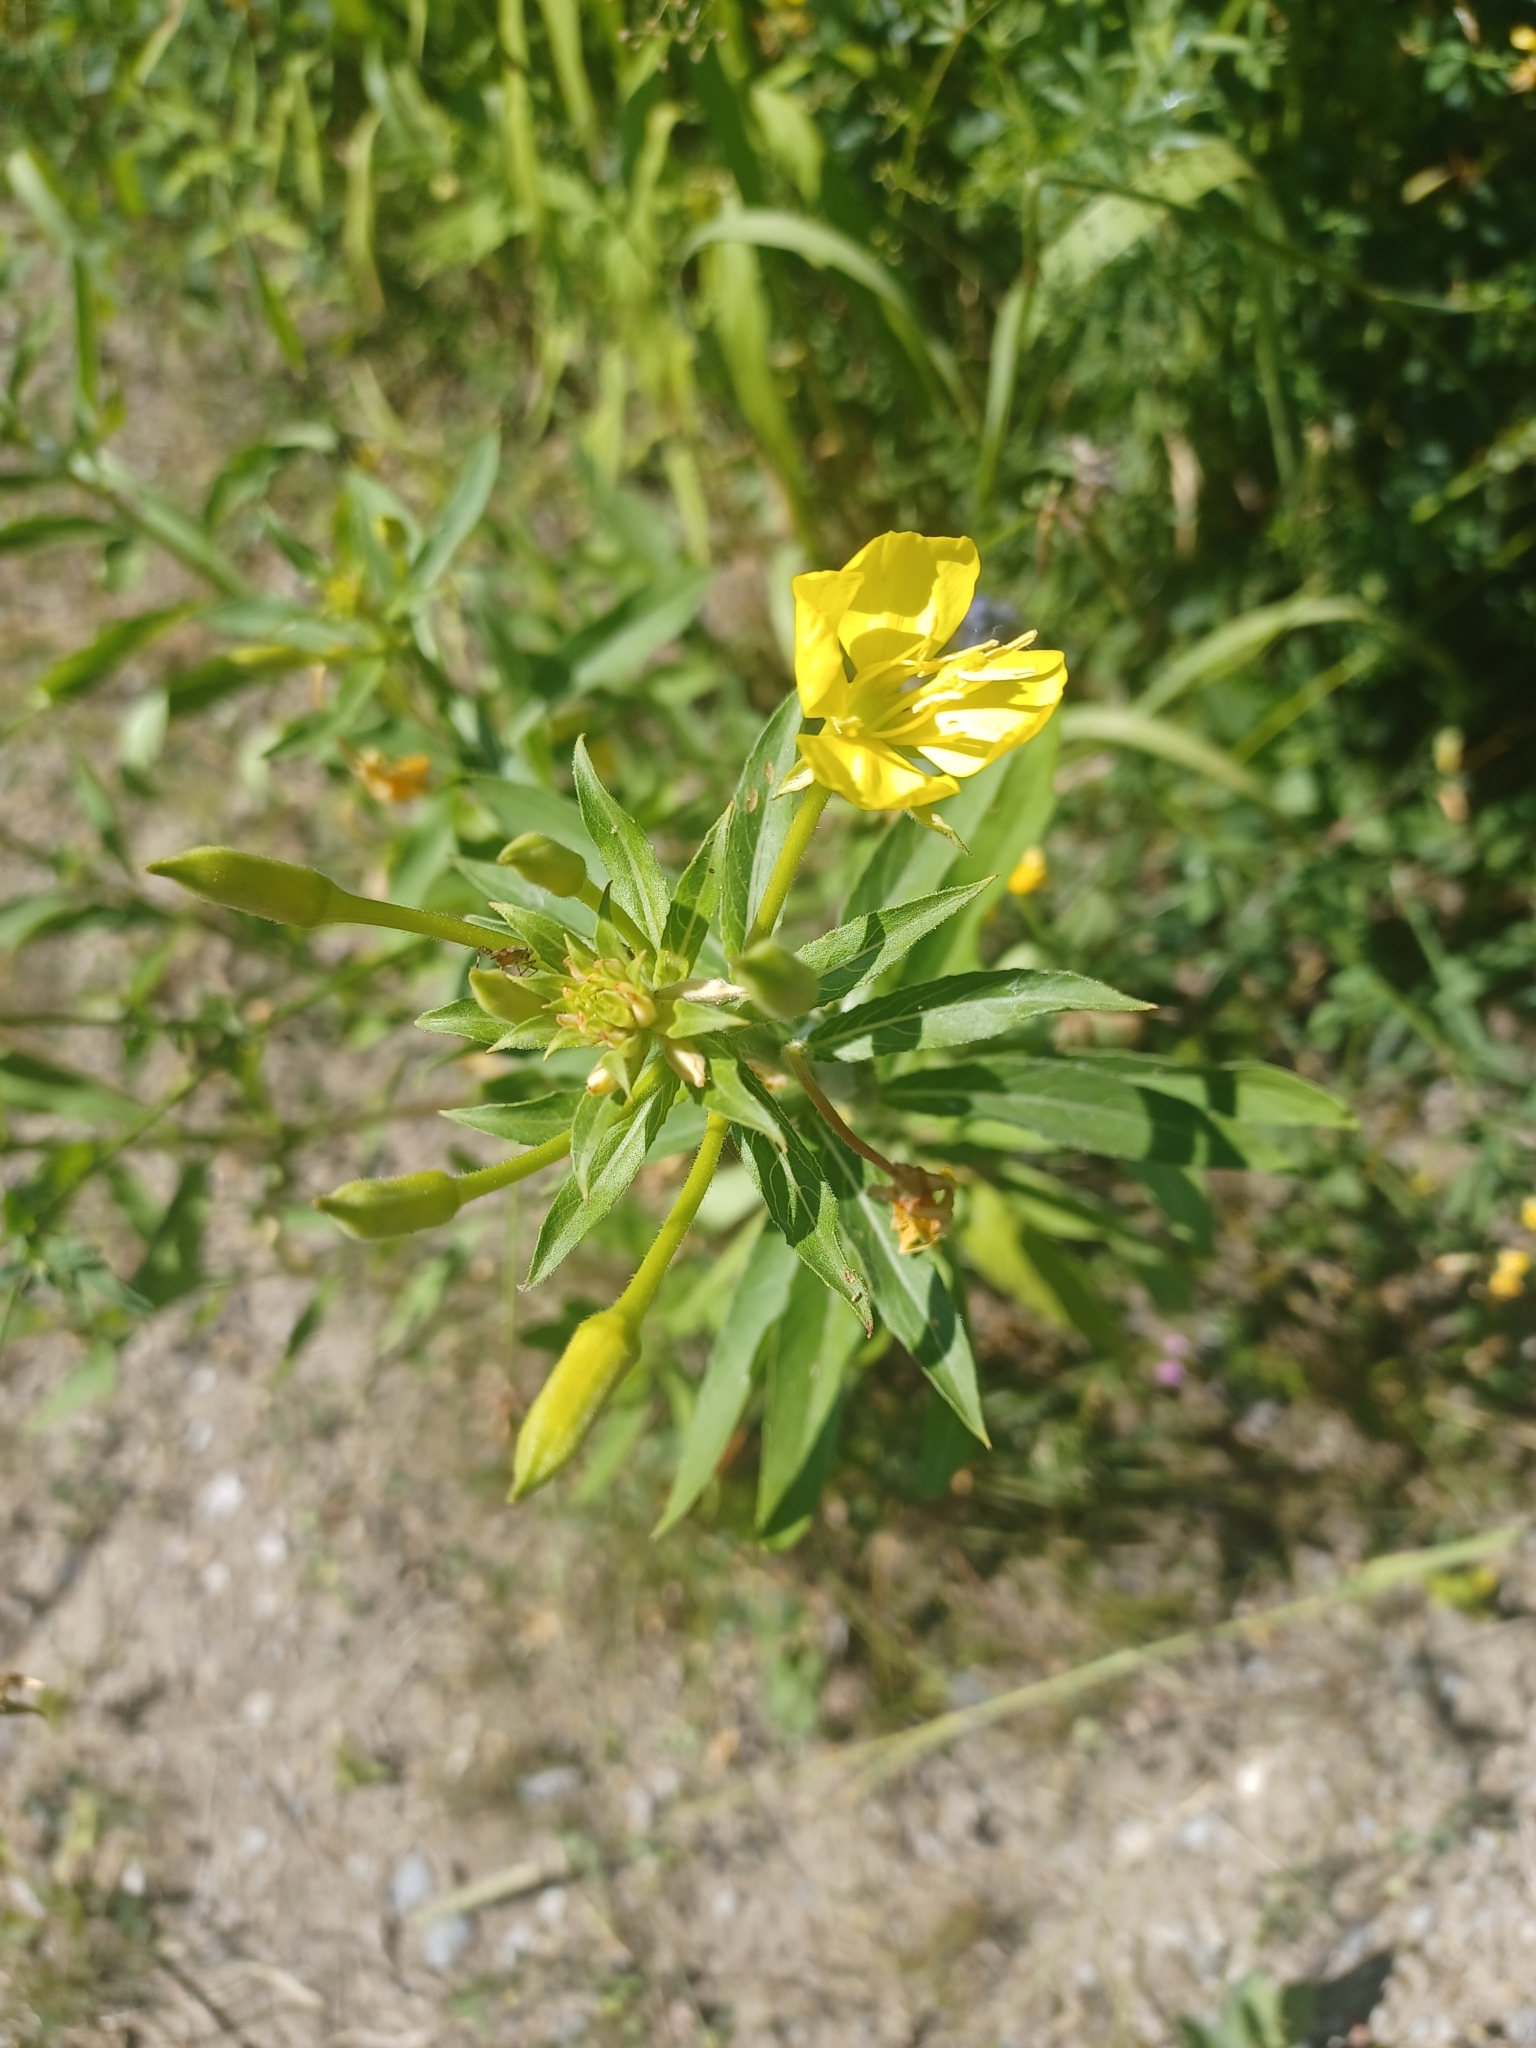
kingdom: Plantae
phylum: Tracheophyta
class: Magnoliopsida
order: Myrtales
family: Onagraceae
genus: Oenothera
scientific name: Oenothera parviflora
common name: Least evening-primrose
